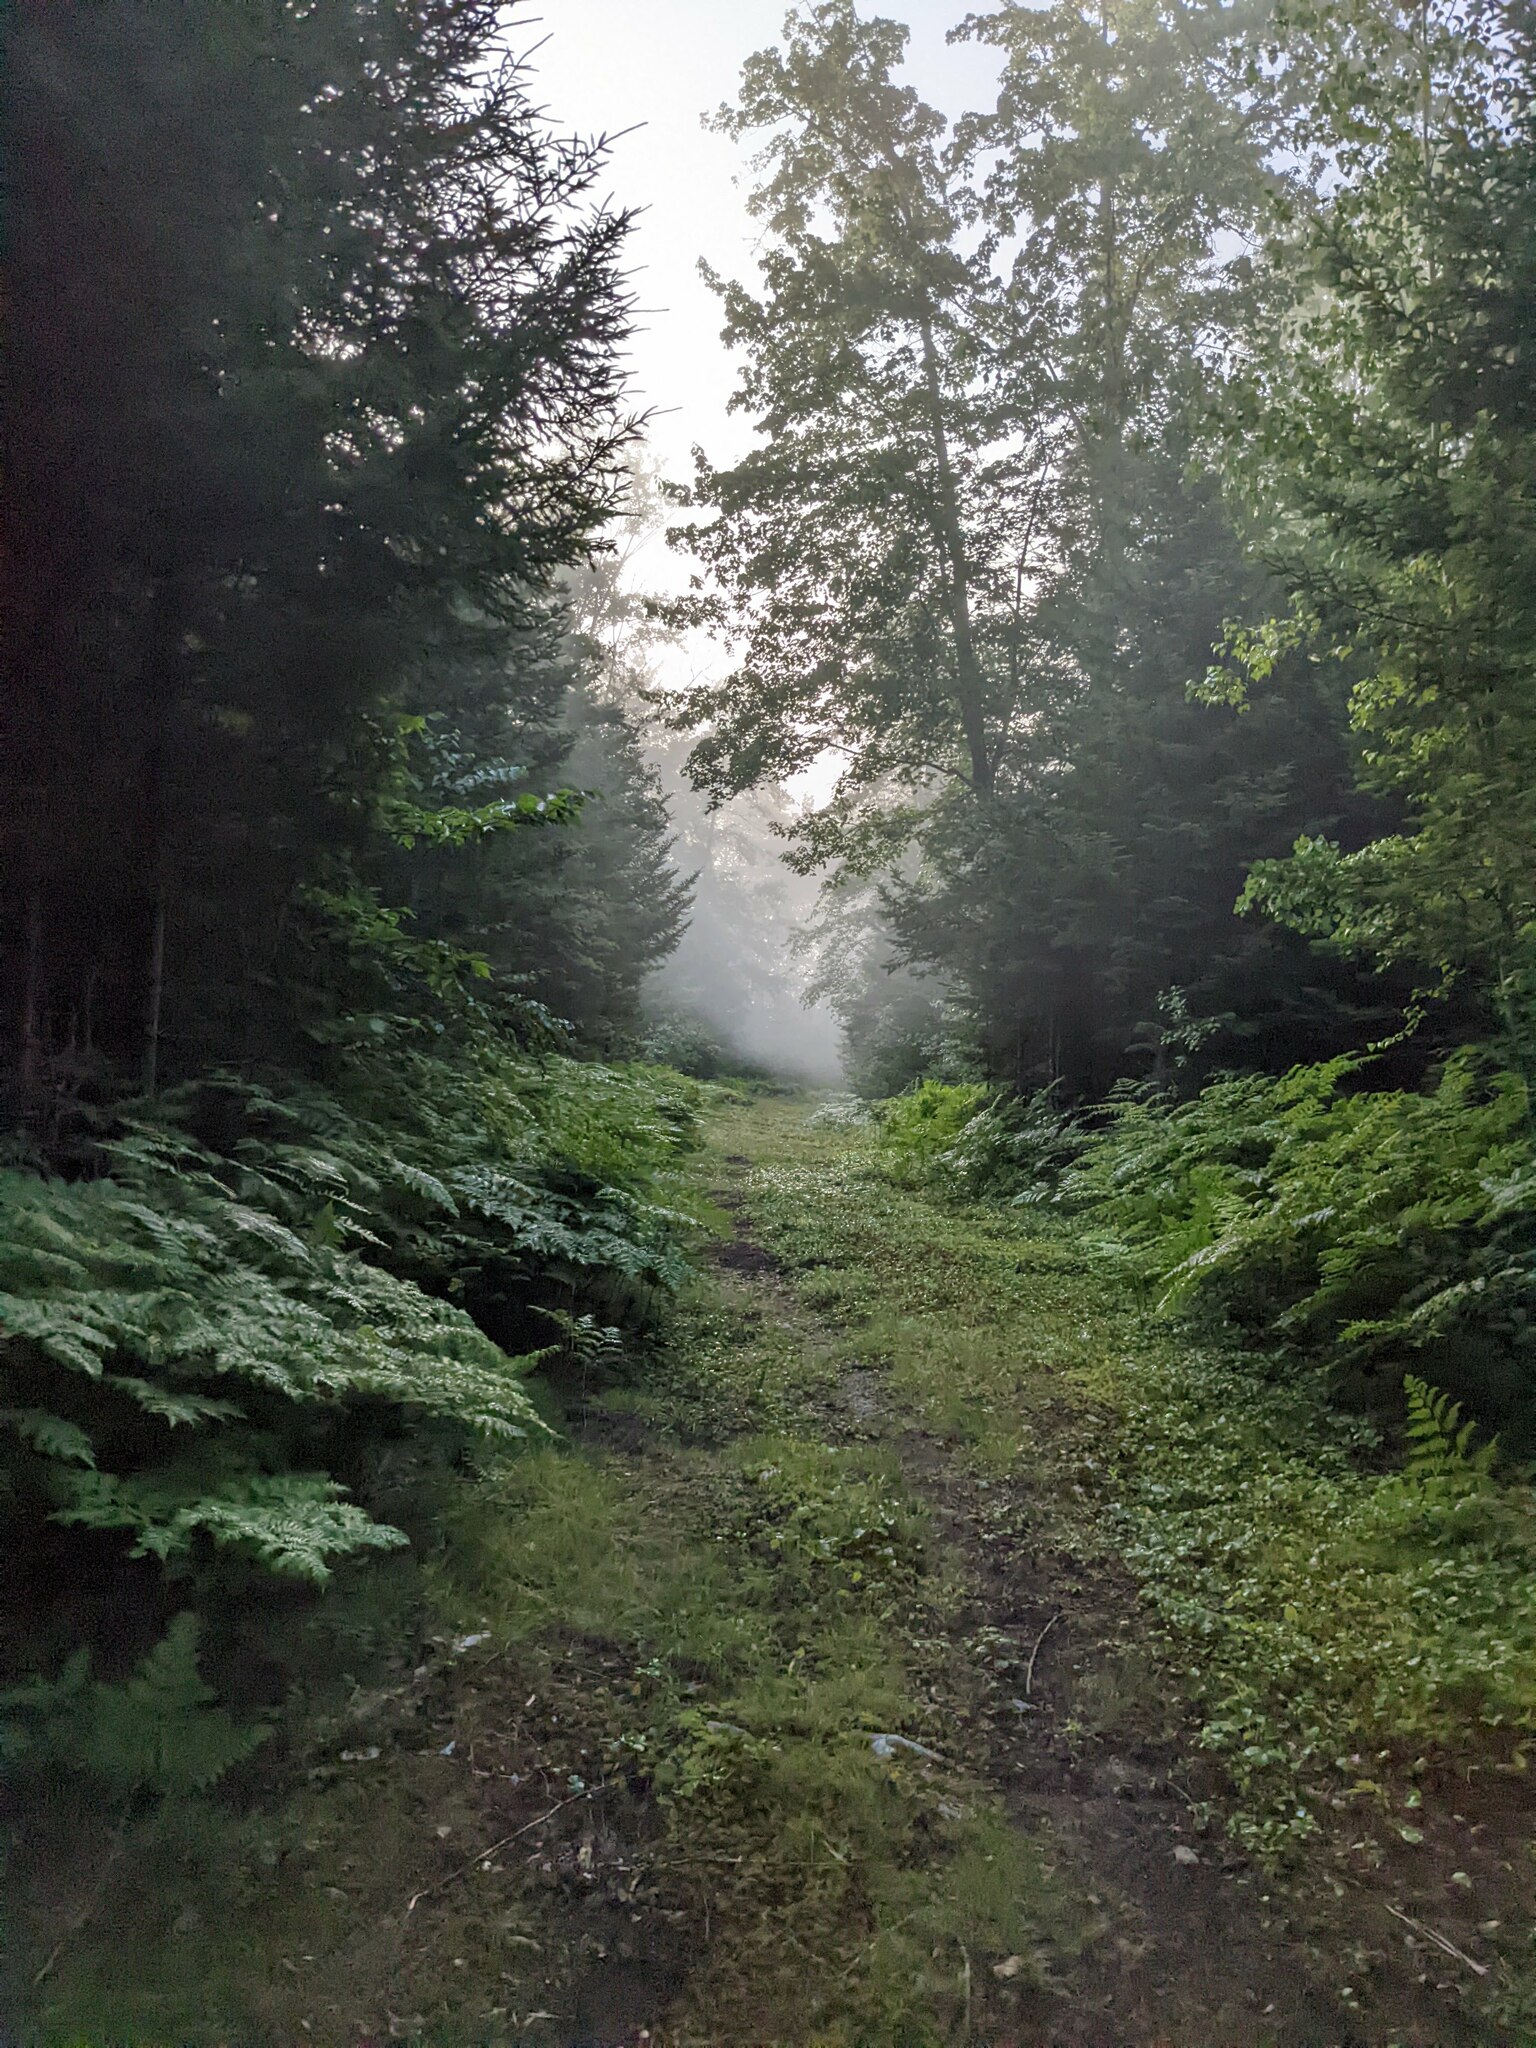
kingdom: Plantae
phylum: Tracheophyta
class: Polypodiopsida
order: Polypodiales
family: Dennstaedtiaceae
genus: Pteridium
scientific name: Pteridium aquilinum
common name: Bracken
